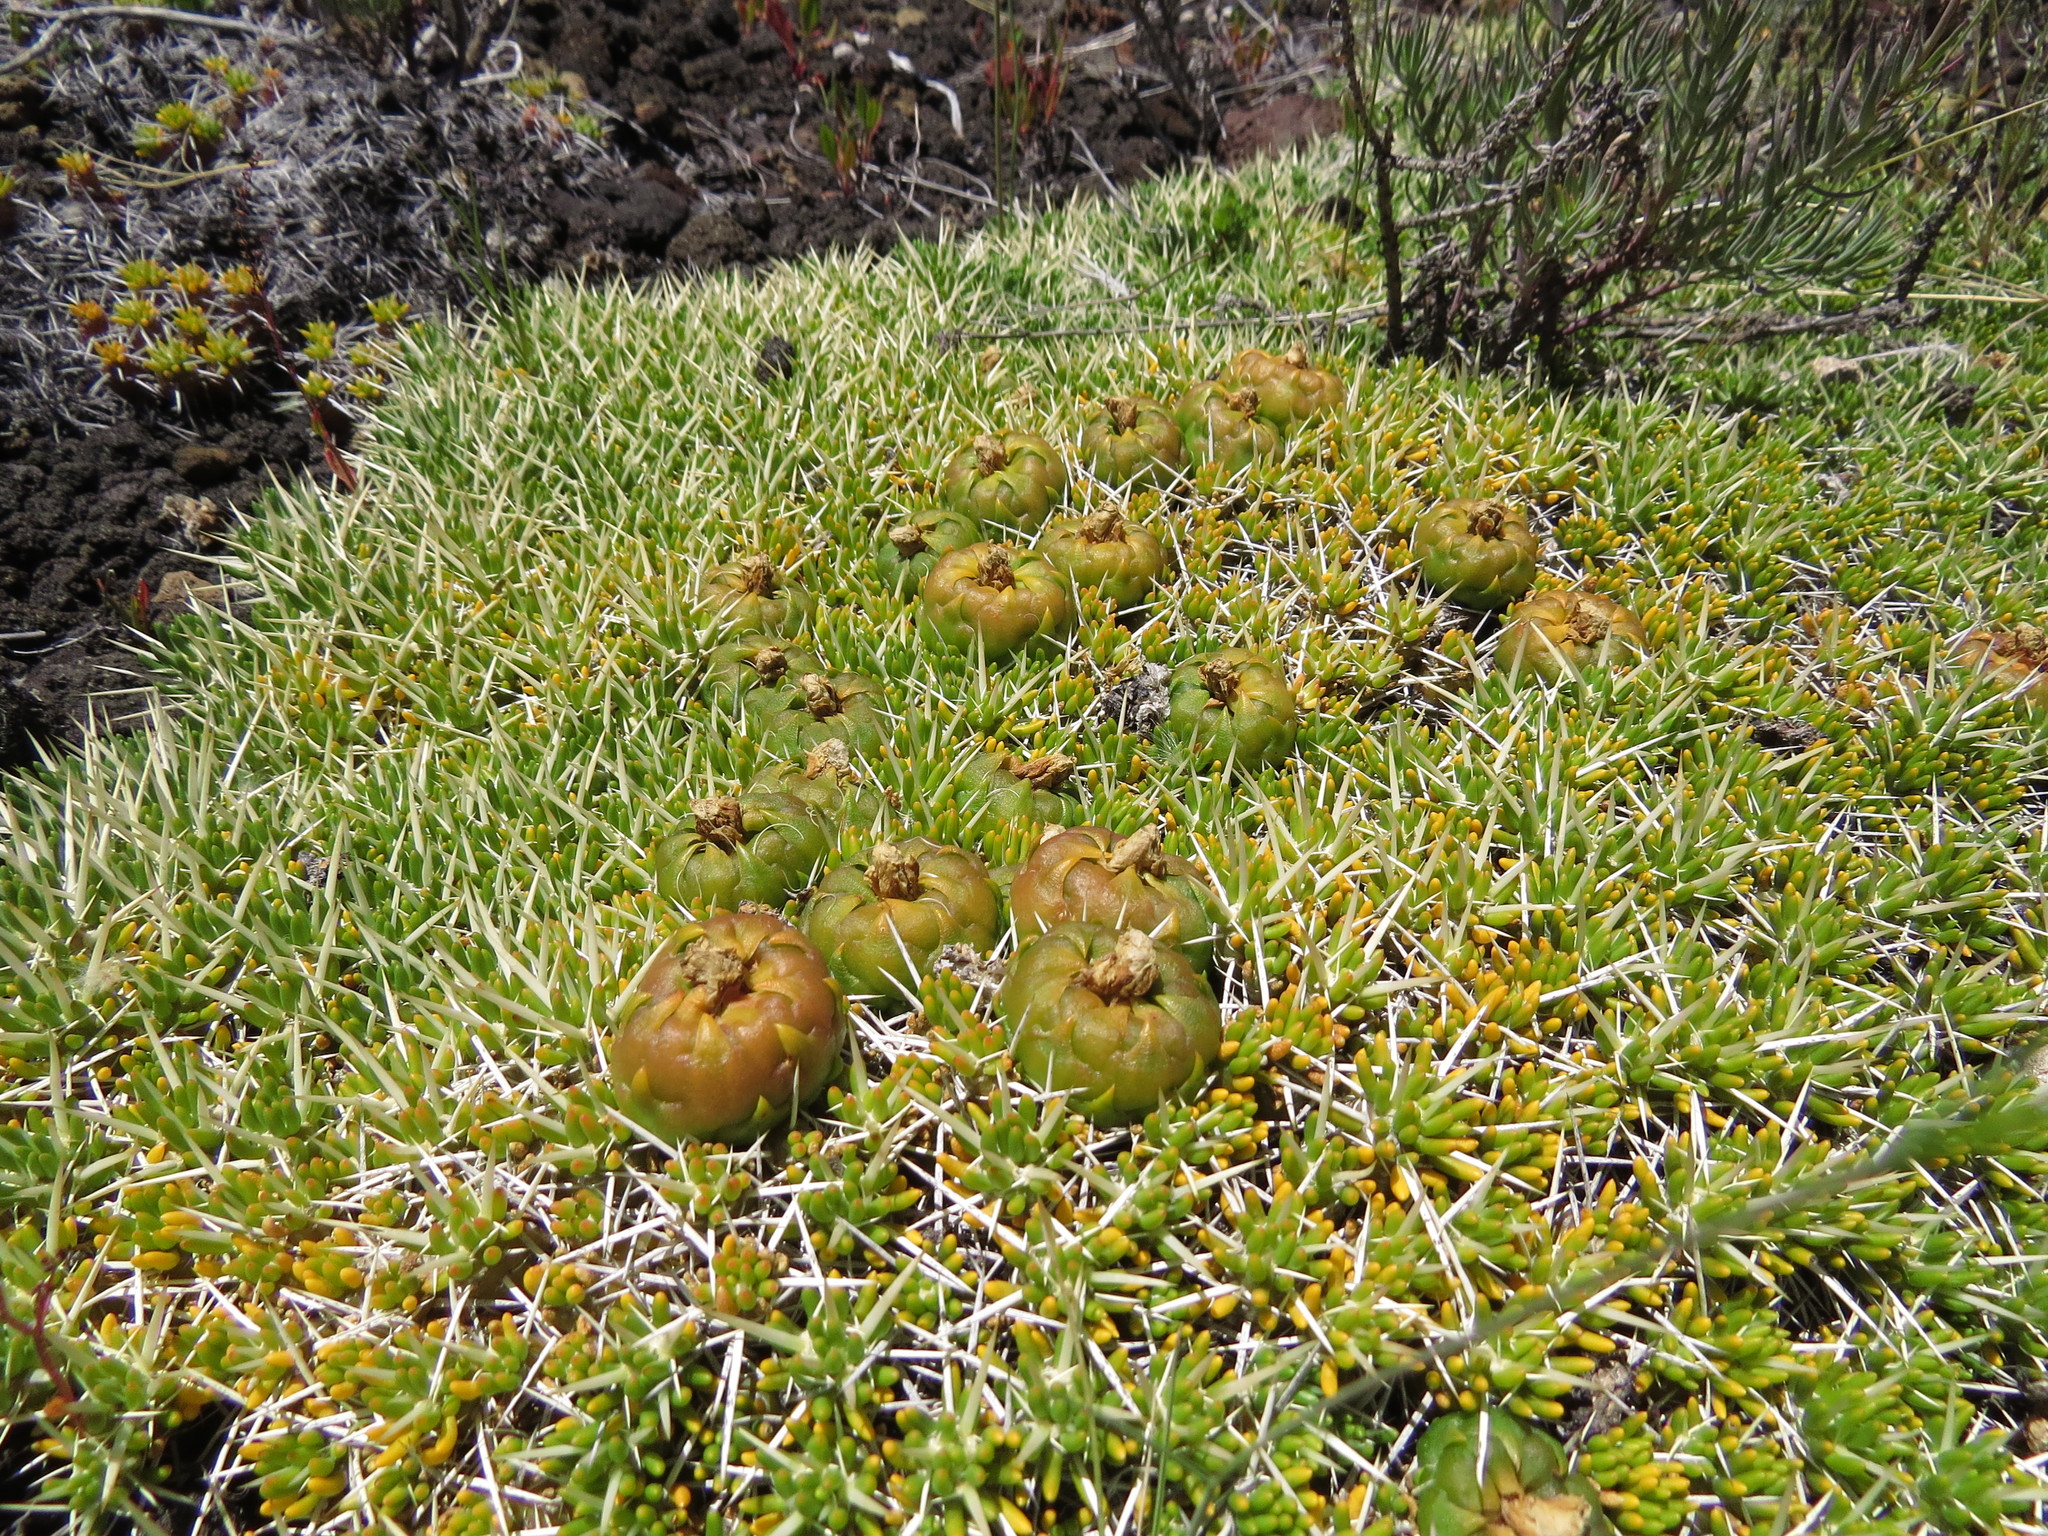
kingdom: Plantae
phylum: Tracheophyta
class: Magnoliopsida
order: Caryophyllales
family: Cactaceae
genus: Maihuenia
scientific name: Maihuenia poeppigii
